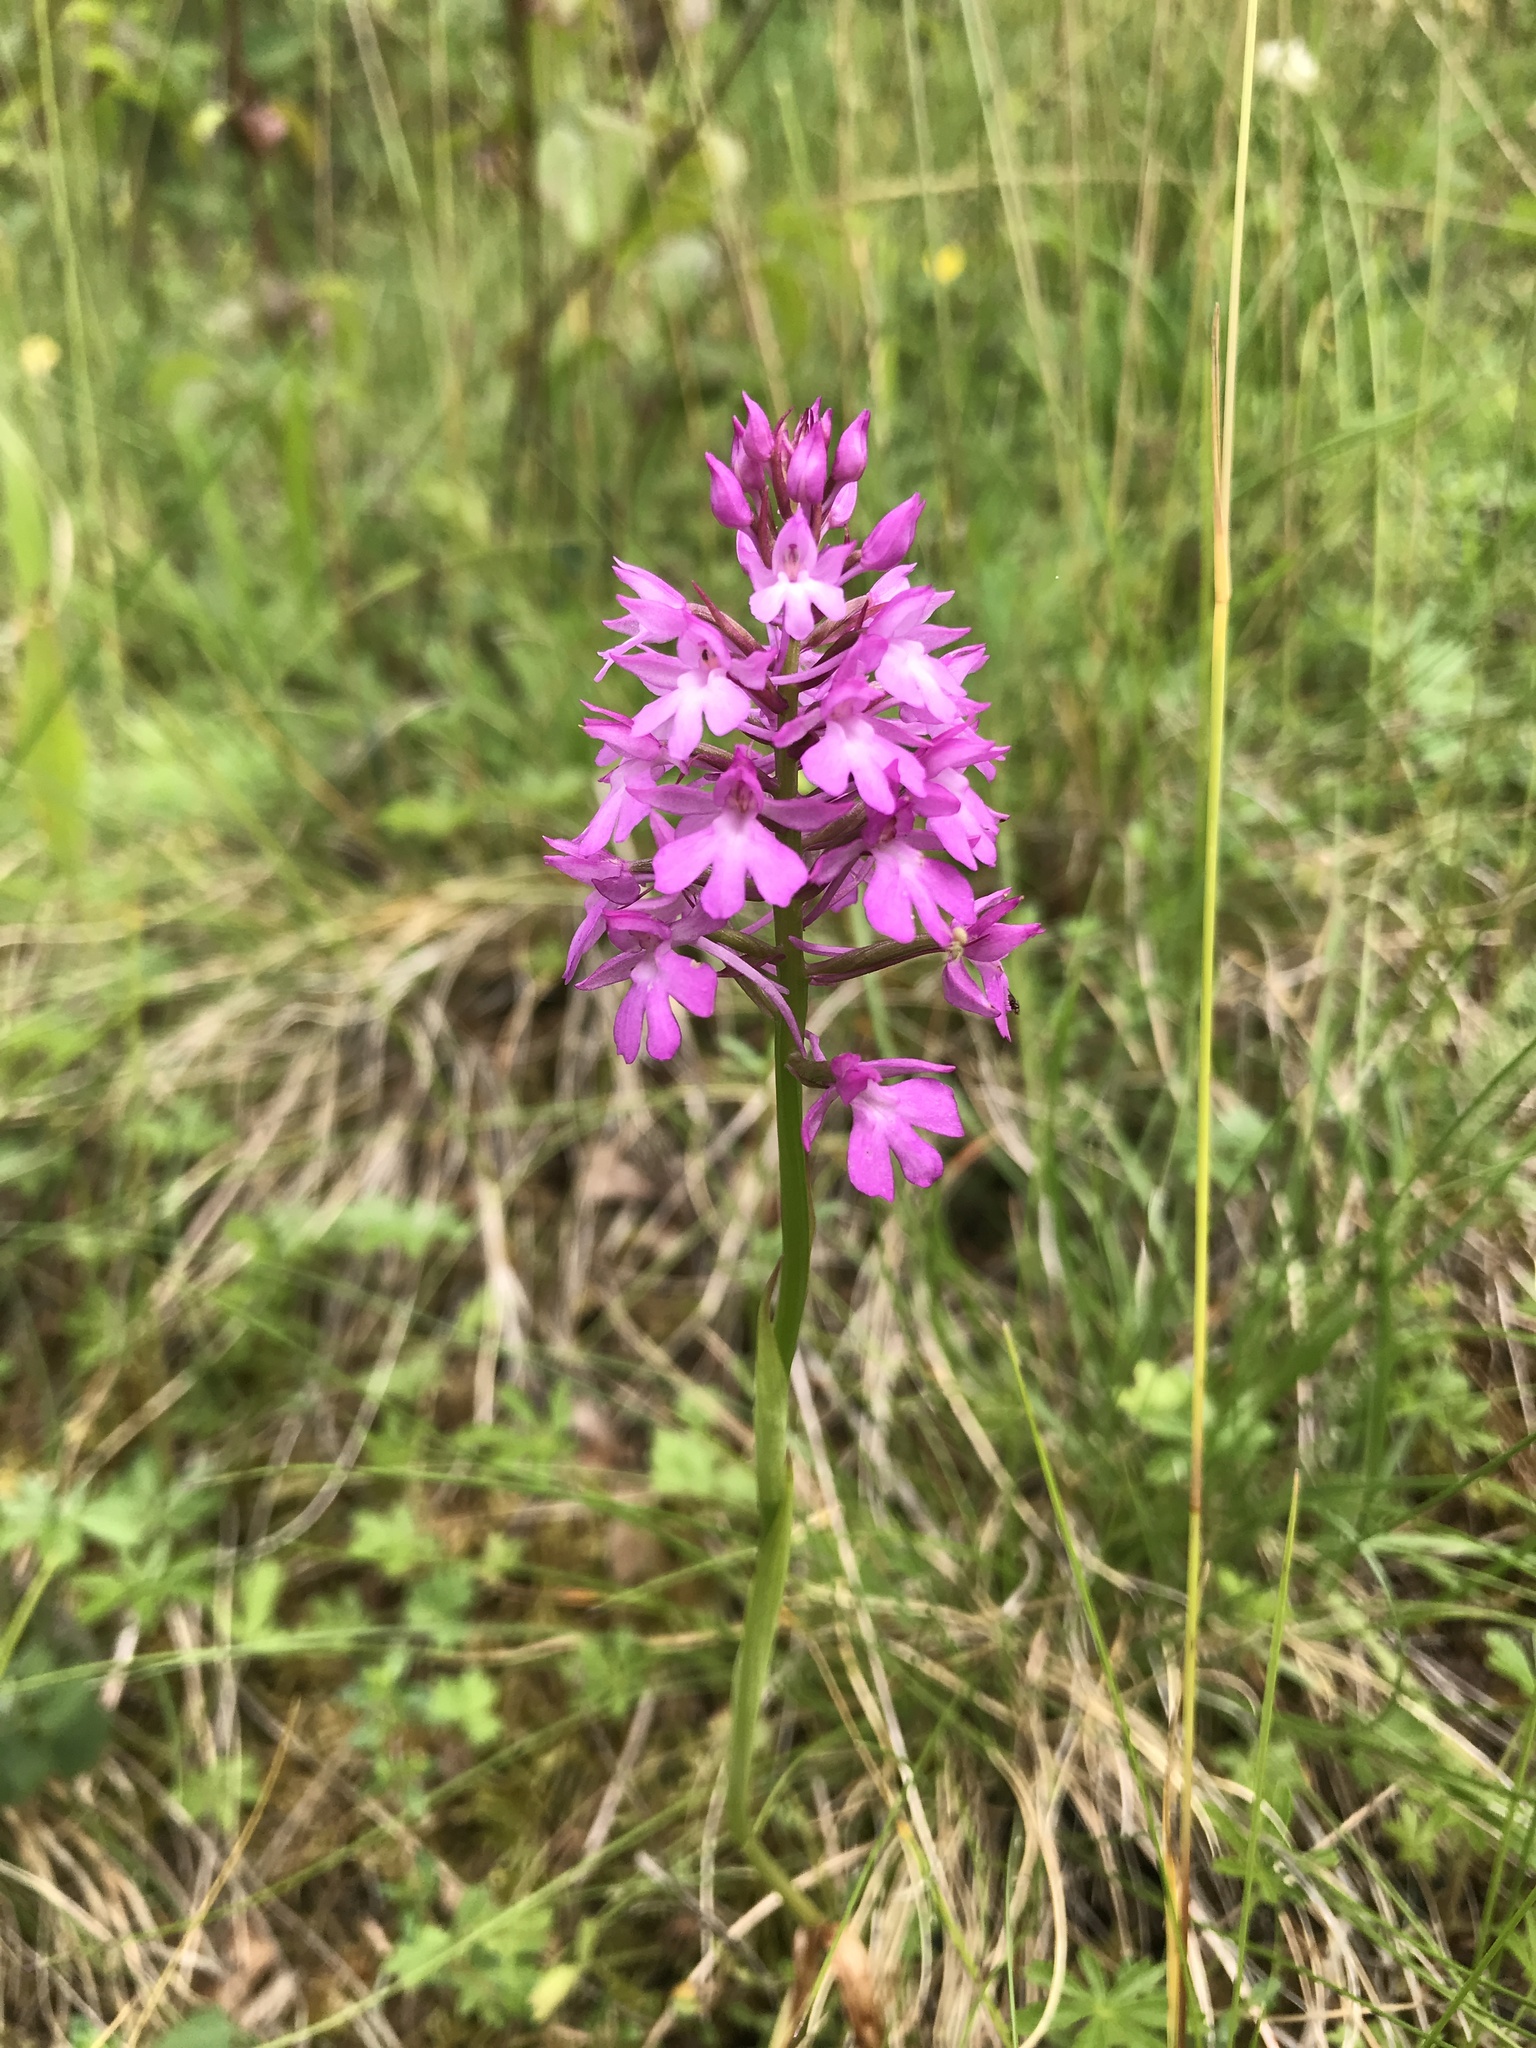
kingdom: Plantae
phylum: Tracheophyta
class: Liliopsida
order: Asparagales
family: Orchidaceae
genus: Anacamptis
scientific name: Anacamptis pyramidalis
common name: Pyramidal orchid
